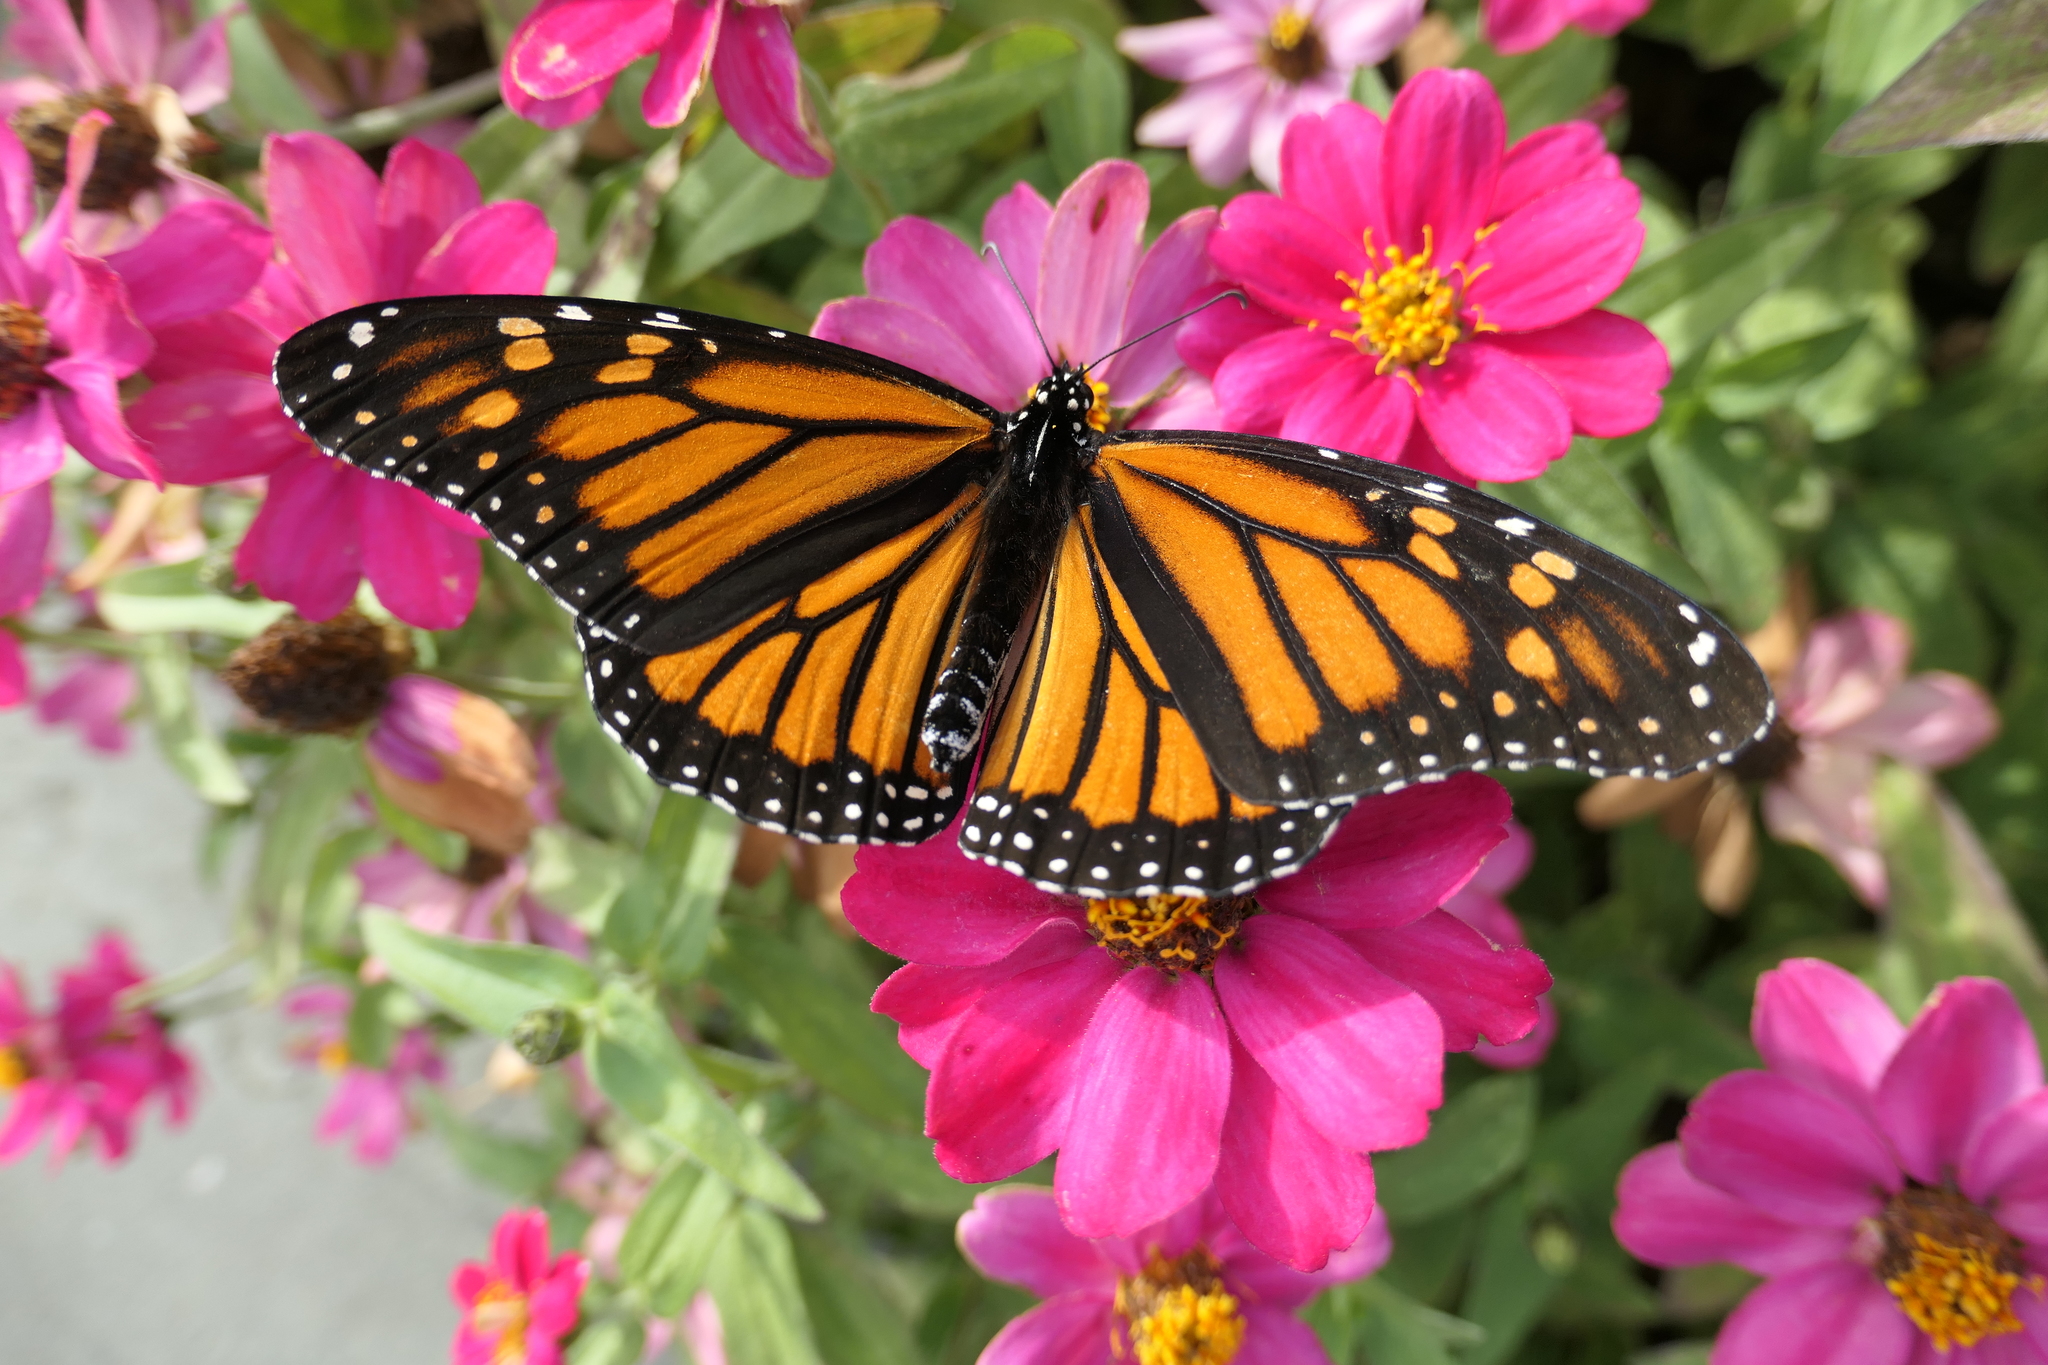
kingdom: Animalia
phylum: Arthropoda
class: Insecta
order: Lepidoptera
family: Nymphalidae
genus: Danaus
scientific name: Danaus plexippus
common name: Monarch
